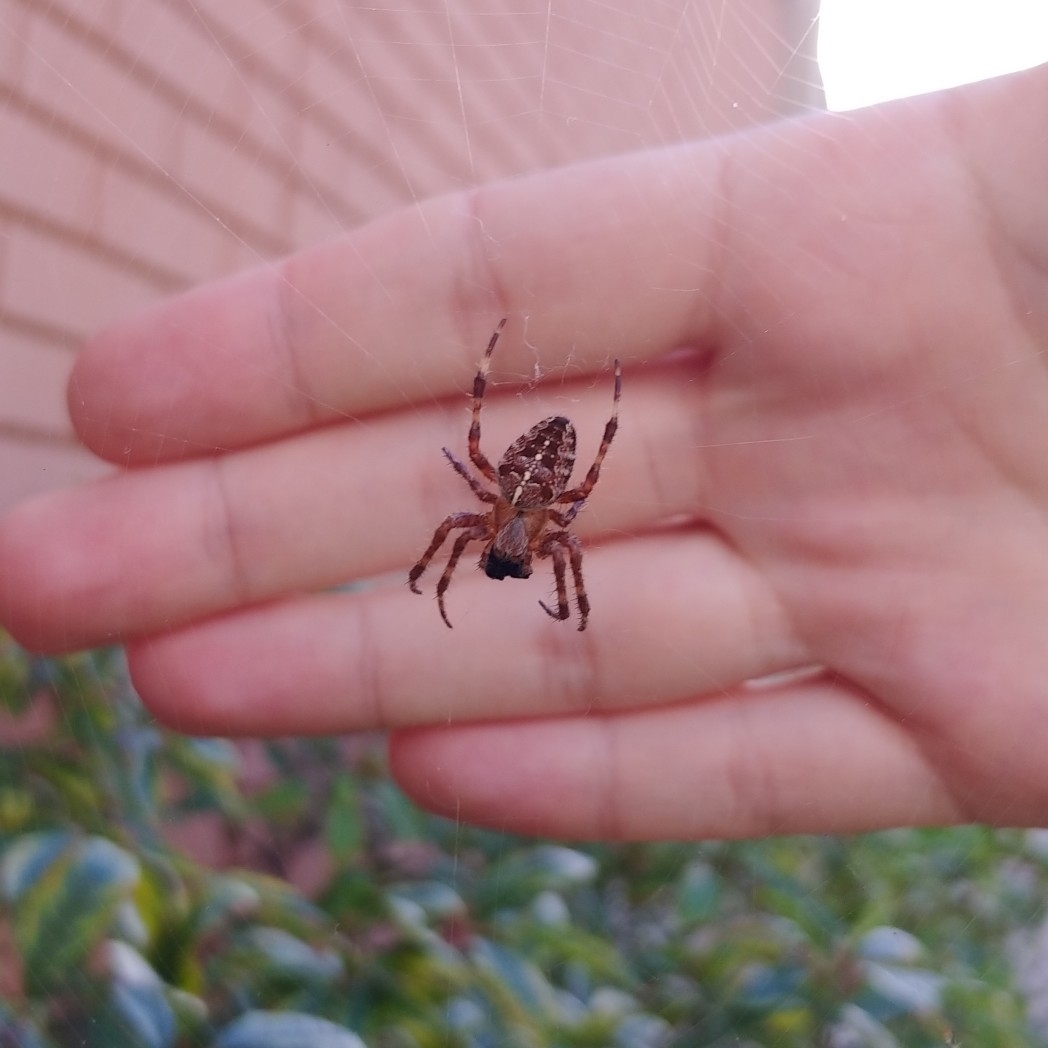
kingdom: Animalia
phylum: Arthropoda
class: Arachnida
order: Araneae
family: Araneidae
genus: Araneus
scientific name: Araneus diadematus
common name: Cross orbweaver
